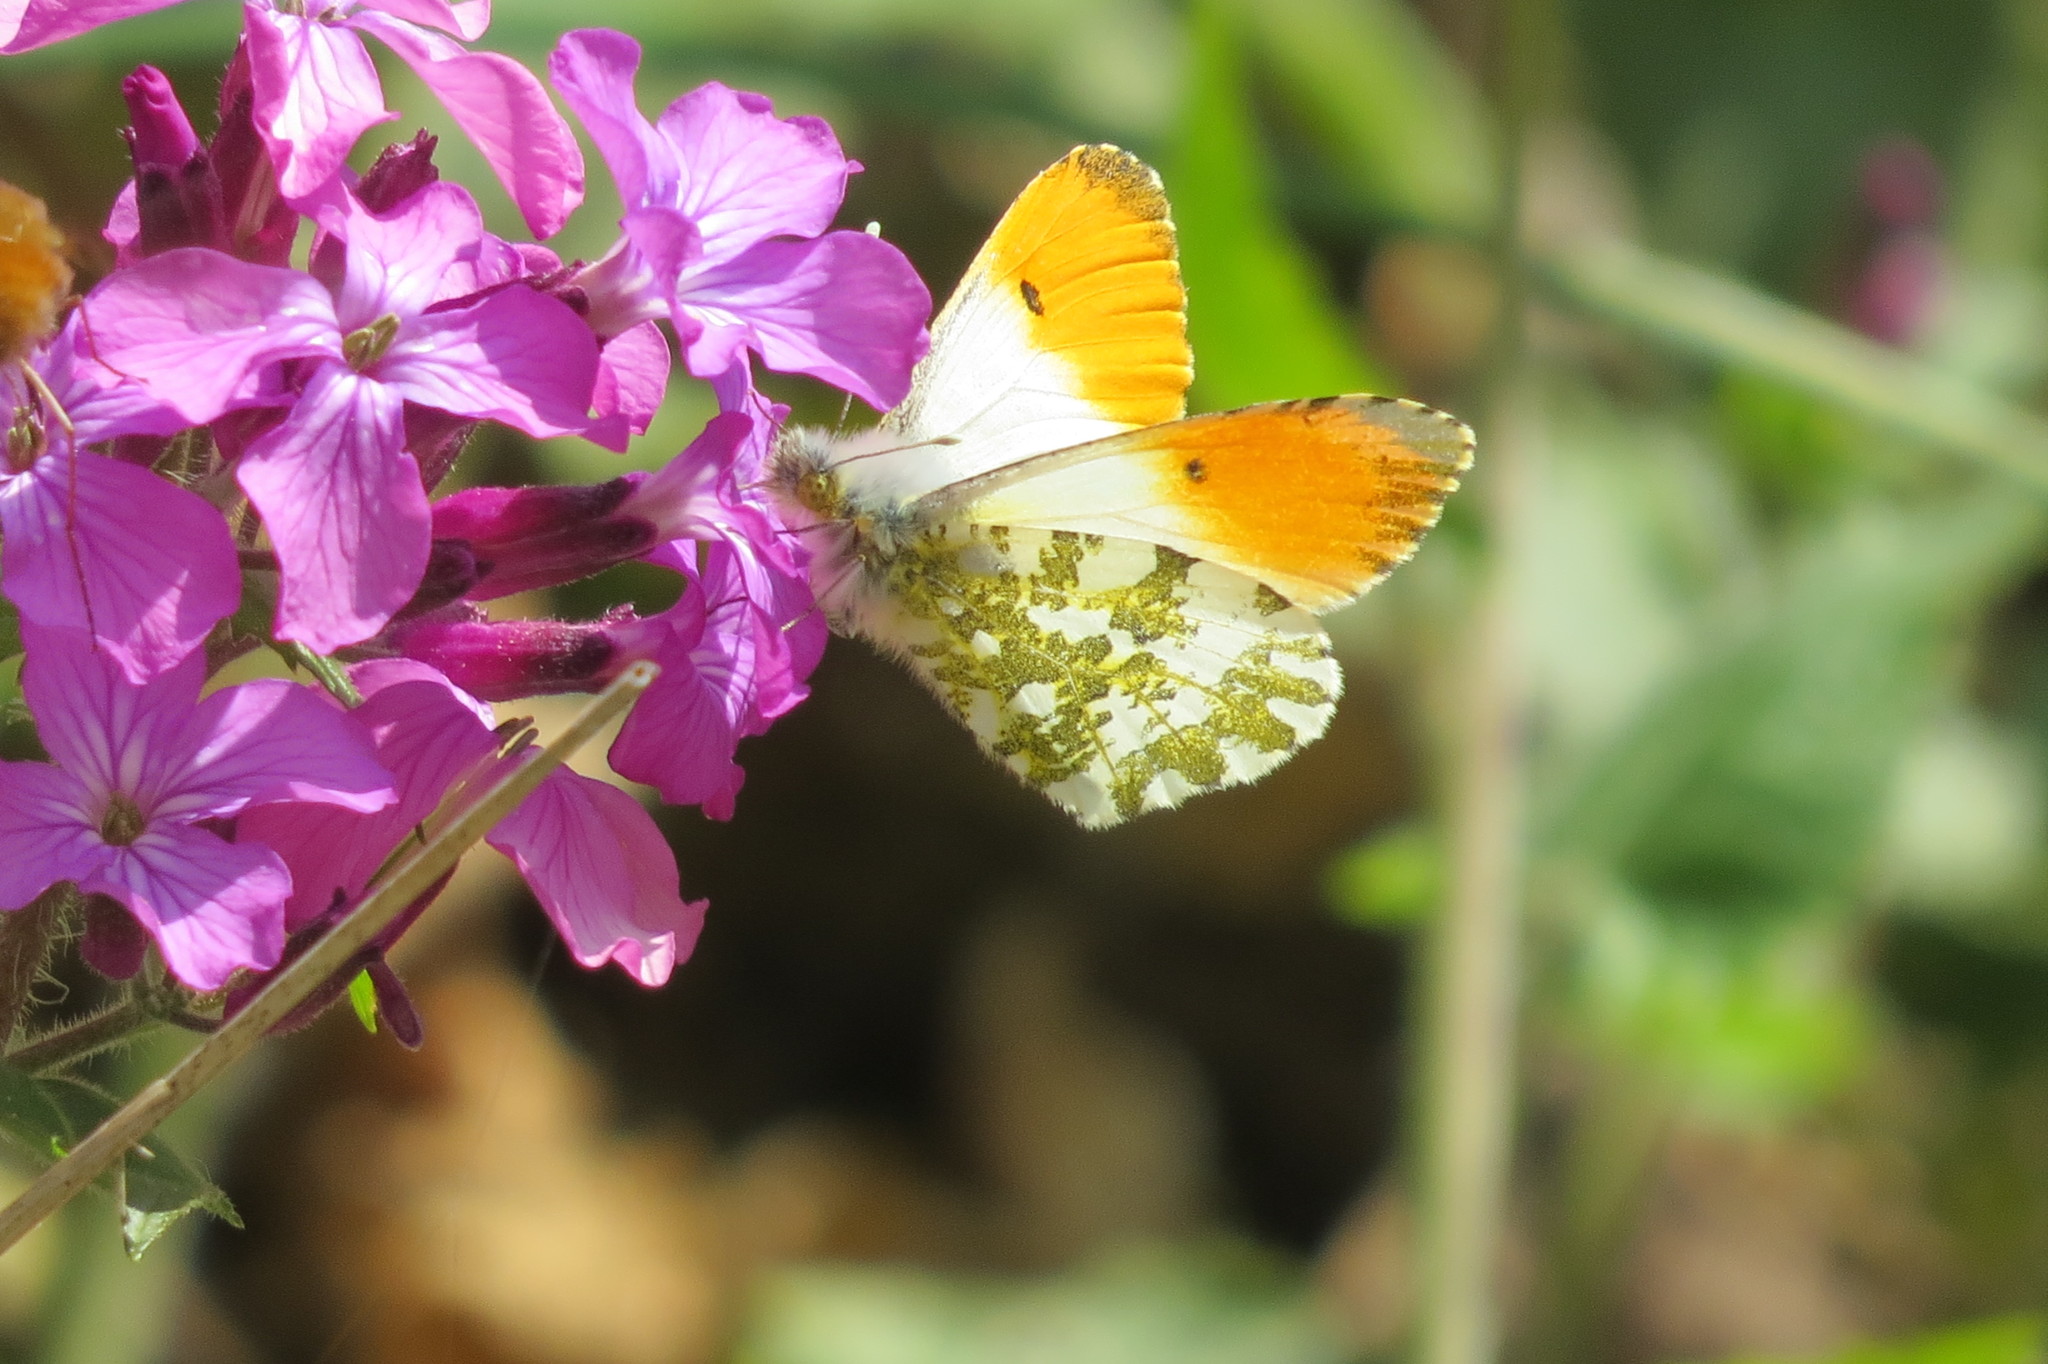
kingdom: Animalia
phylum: Arthropoda
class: Insecta
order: Lepidoptera
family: Pieridae
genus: Anthocharis
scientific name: Anthocharis cardamines
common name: Orange-tip
